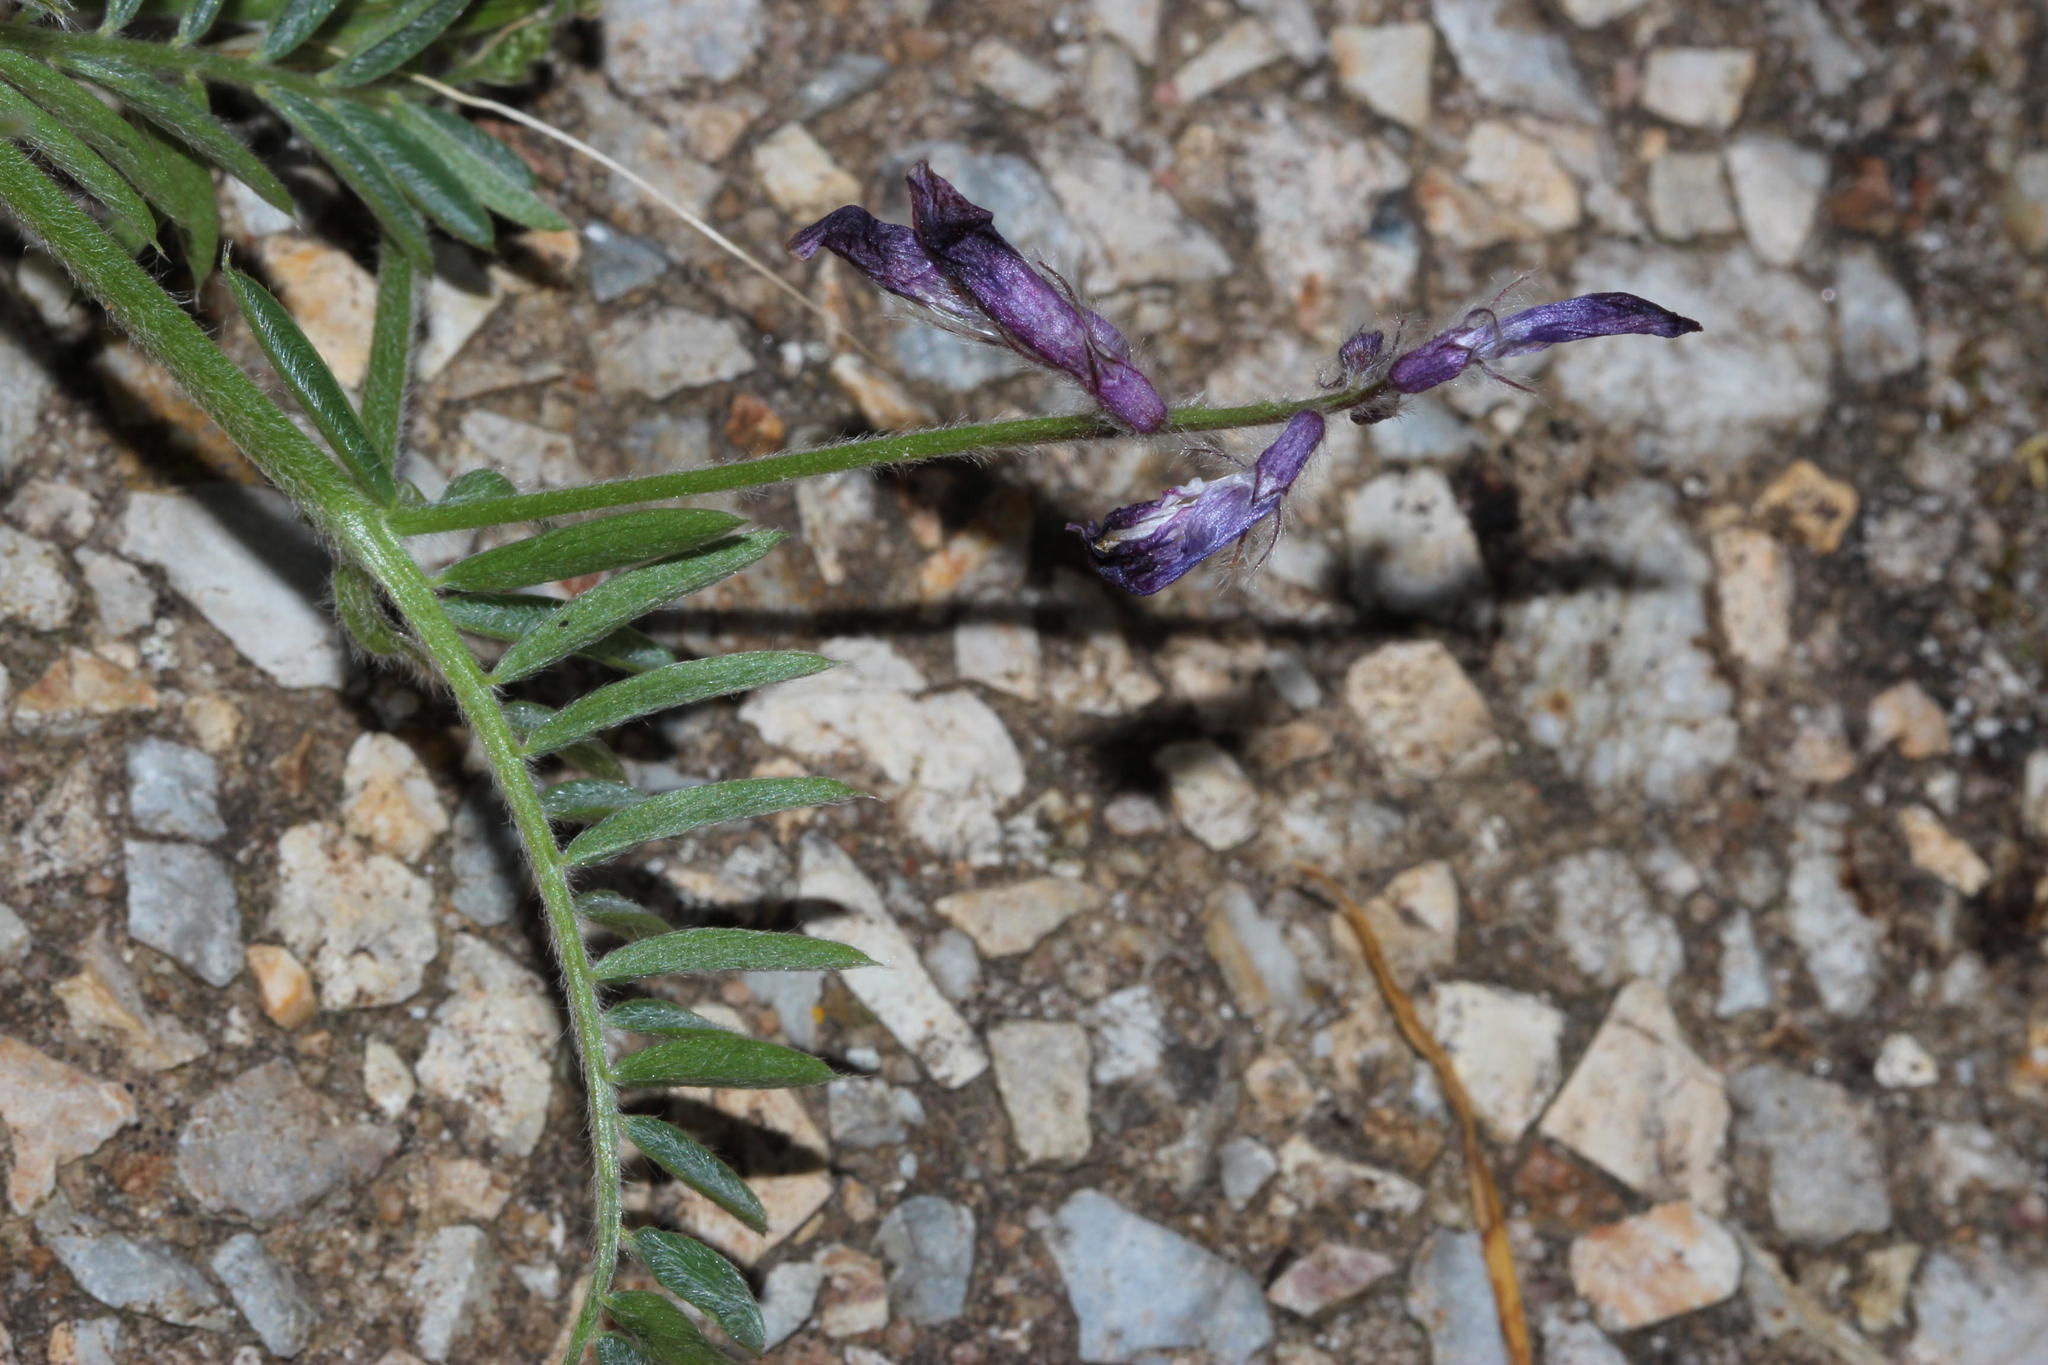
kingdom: Plantae
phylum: Tracheophyta
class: Magnoliopsida
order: Fabales
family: Fabaceae
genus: Vicia
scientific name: Vicia benghalensis
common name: Purple vetch
